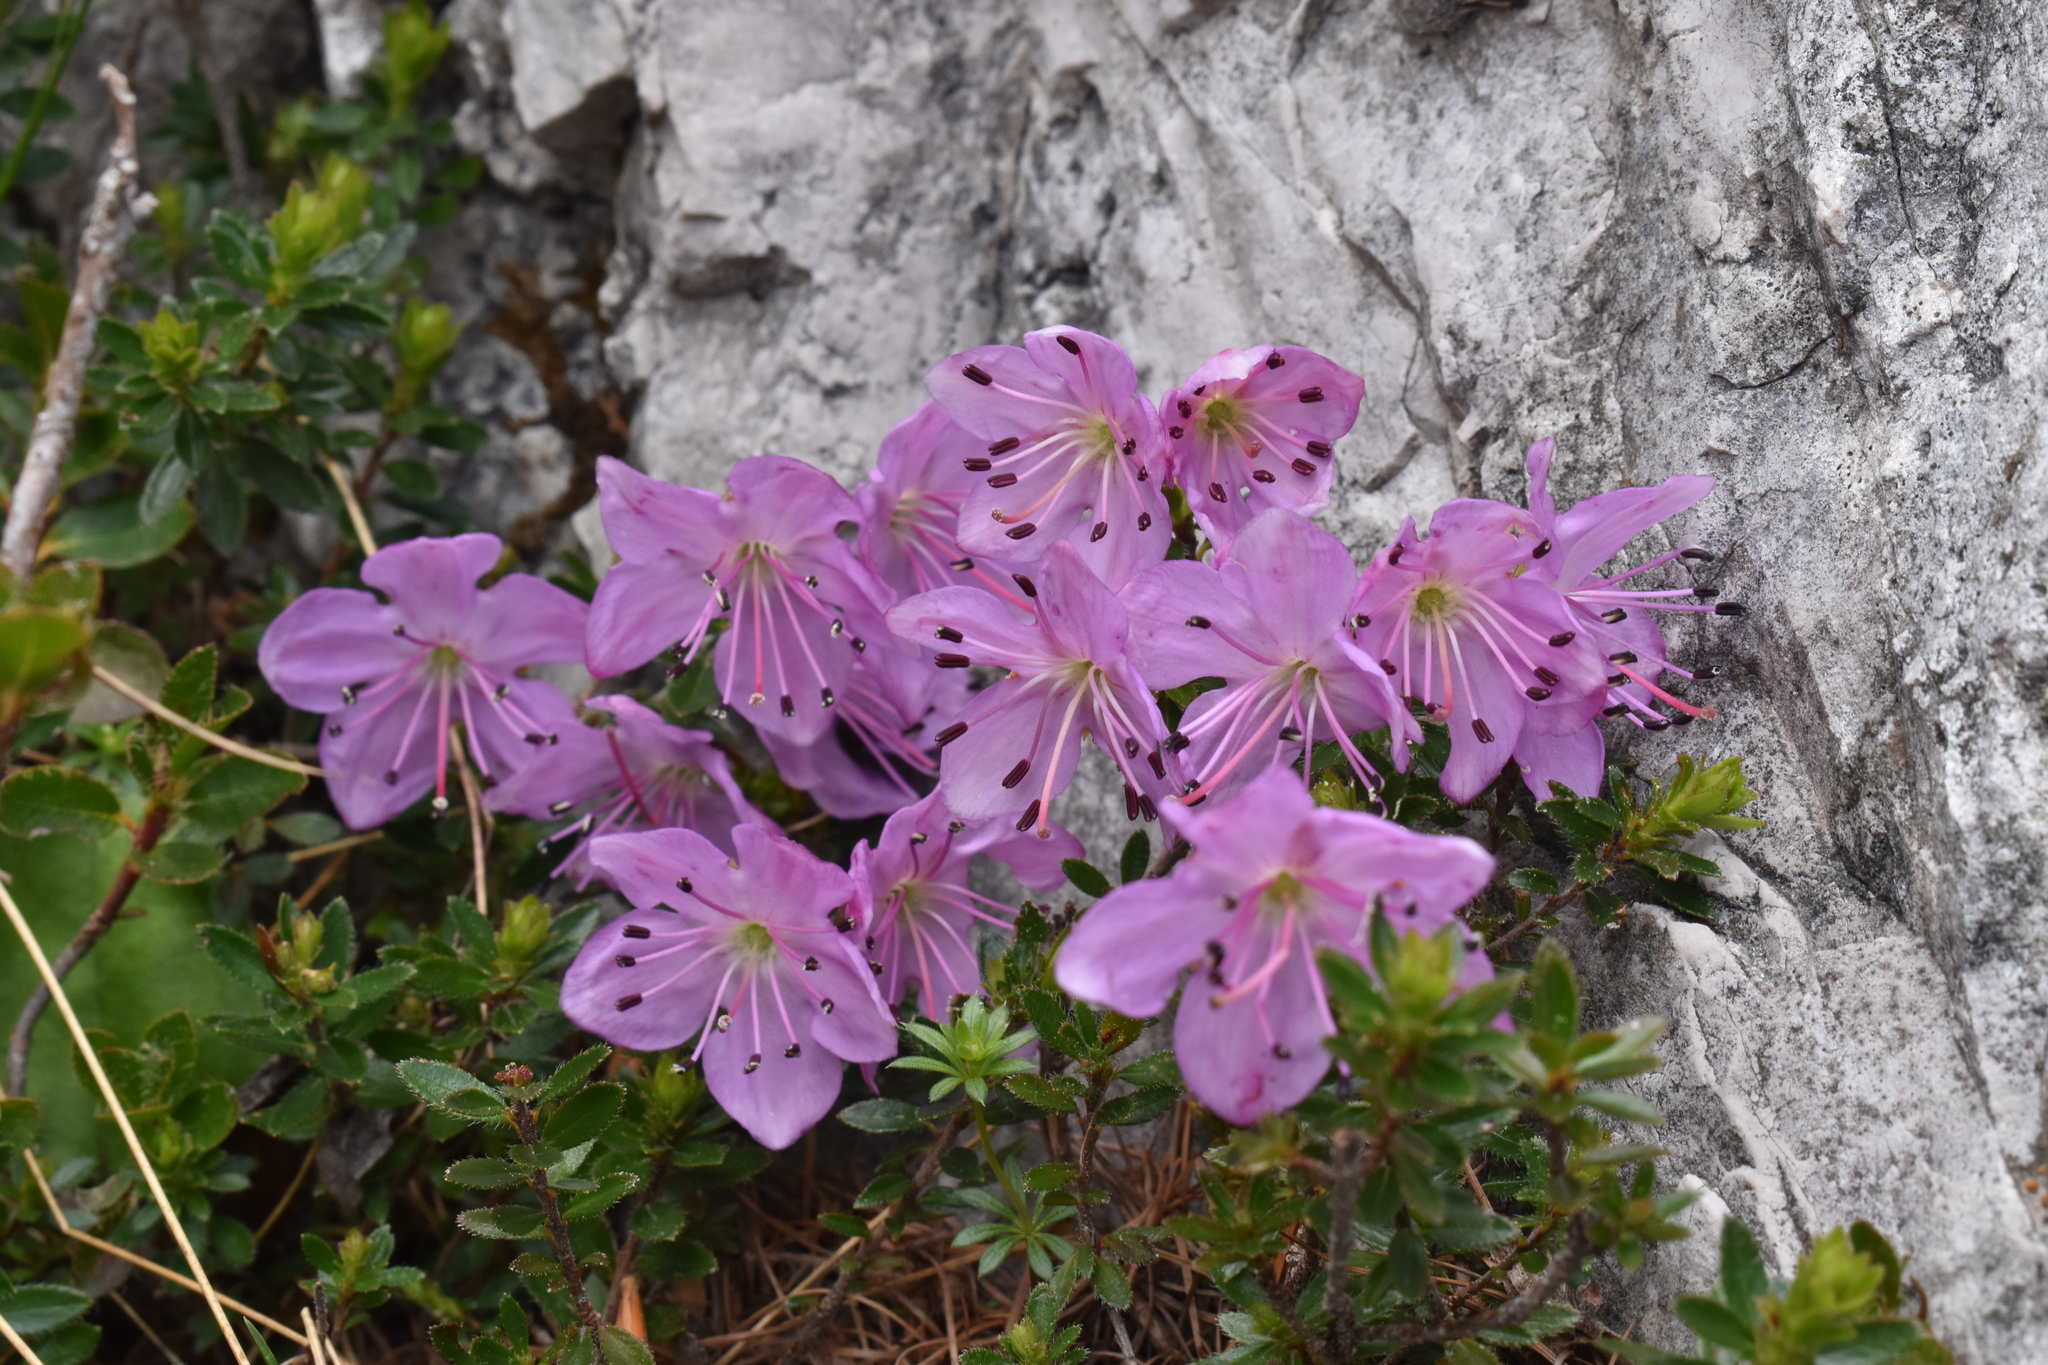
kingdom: Plantae
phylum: Tracheophyta
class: Magnoliopsida
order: Ericales
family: Ericaceae
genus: Rhodothamnus
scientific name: Rhodothamnus chamaecistus
